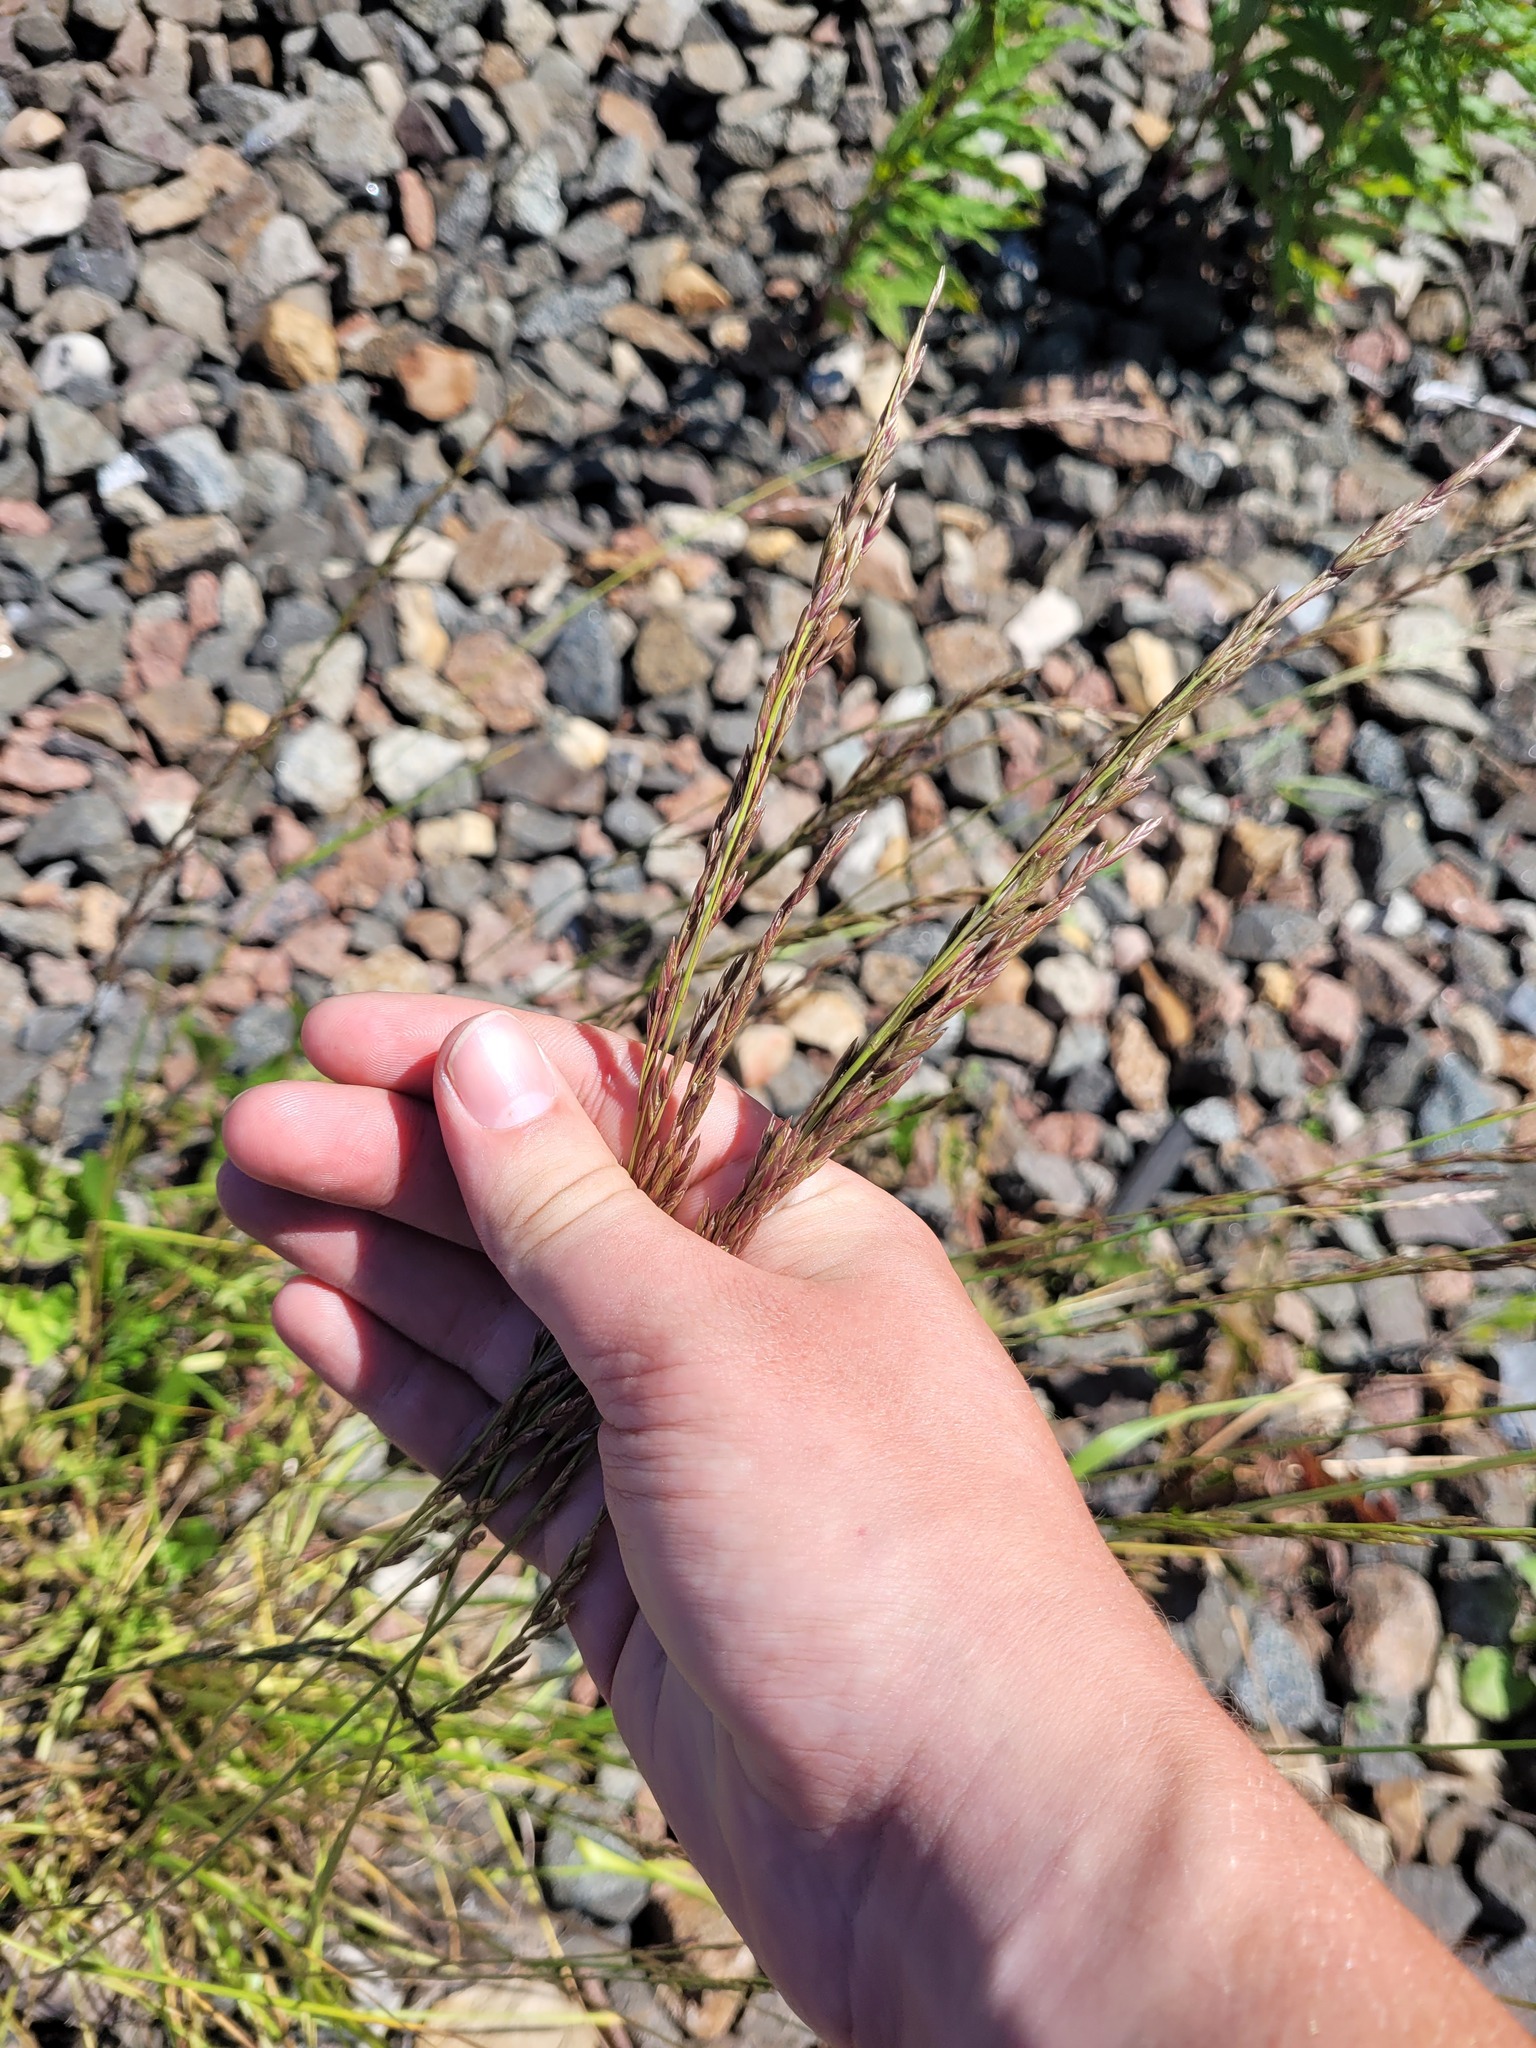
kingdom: Plantae
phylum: Tracheophyta
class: Liliopsida
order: Poales
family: Poaceae
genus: Lolium
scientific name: Lolium pratense
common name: Dover grass
